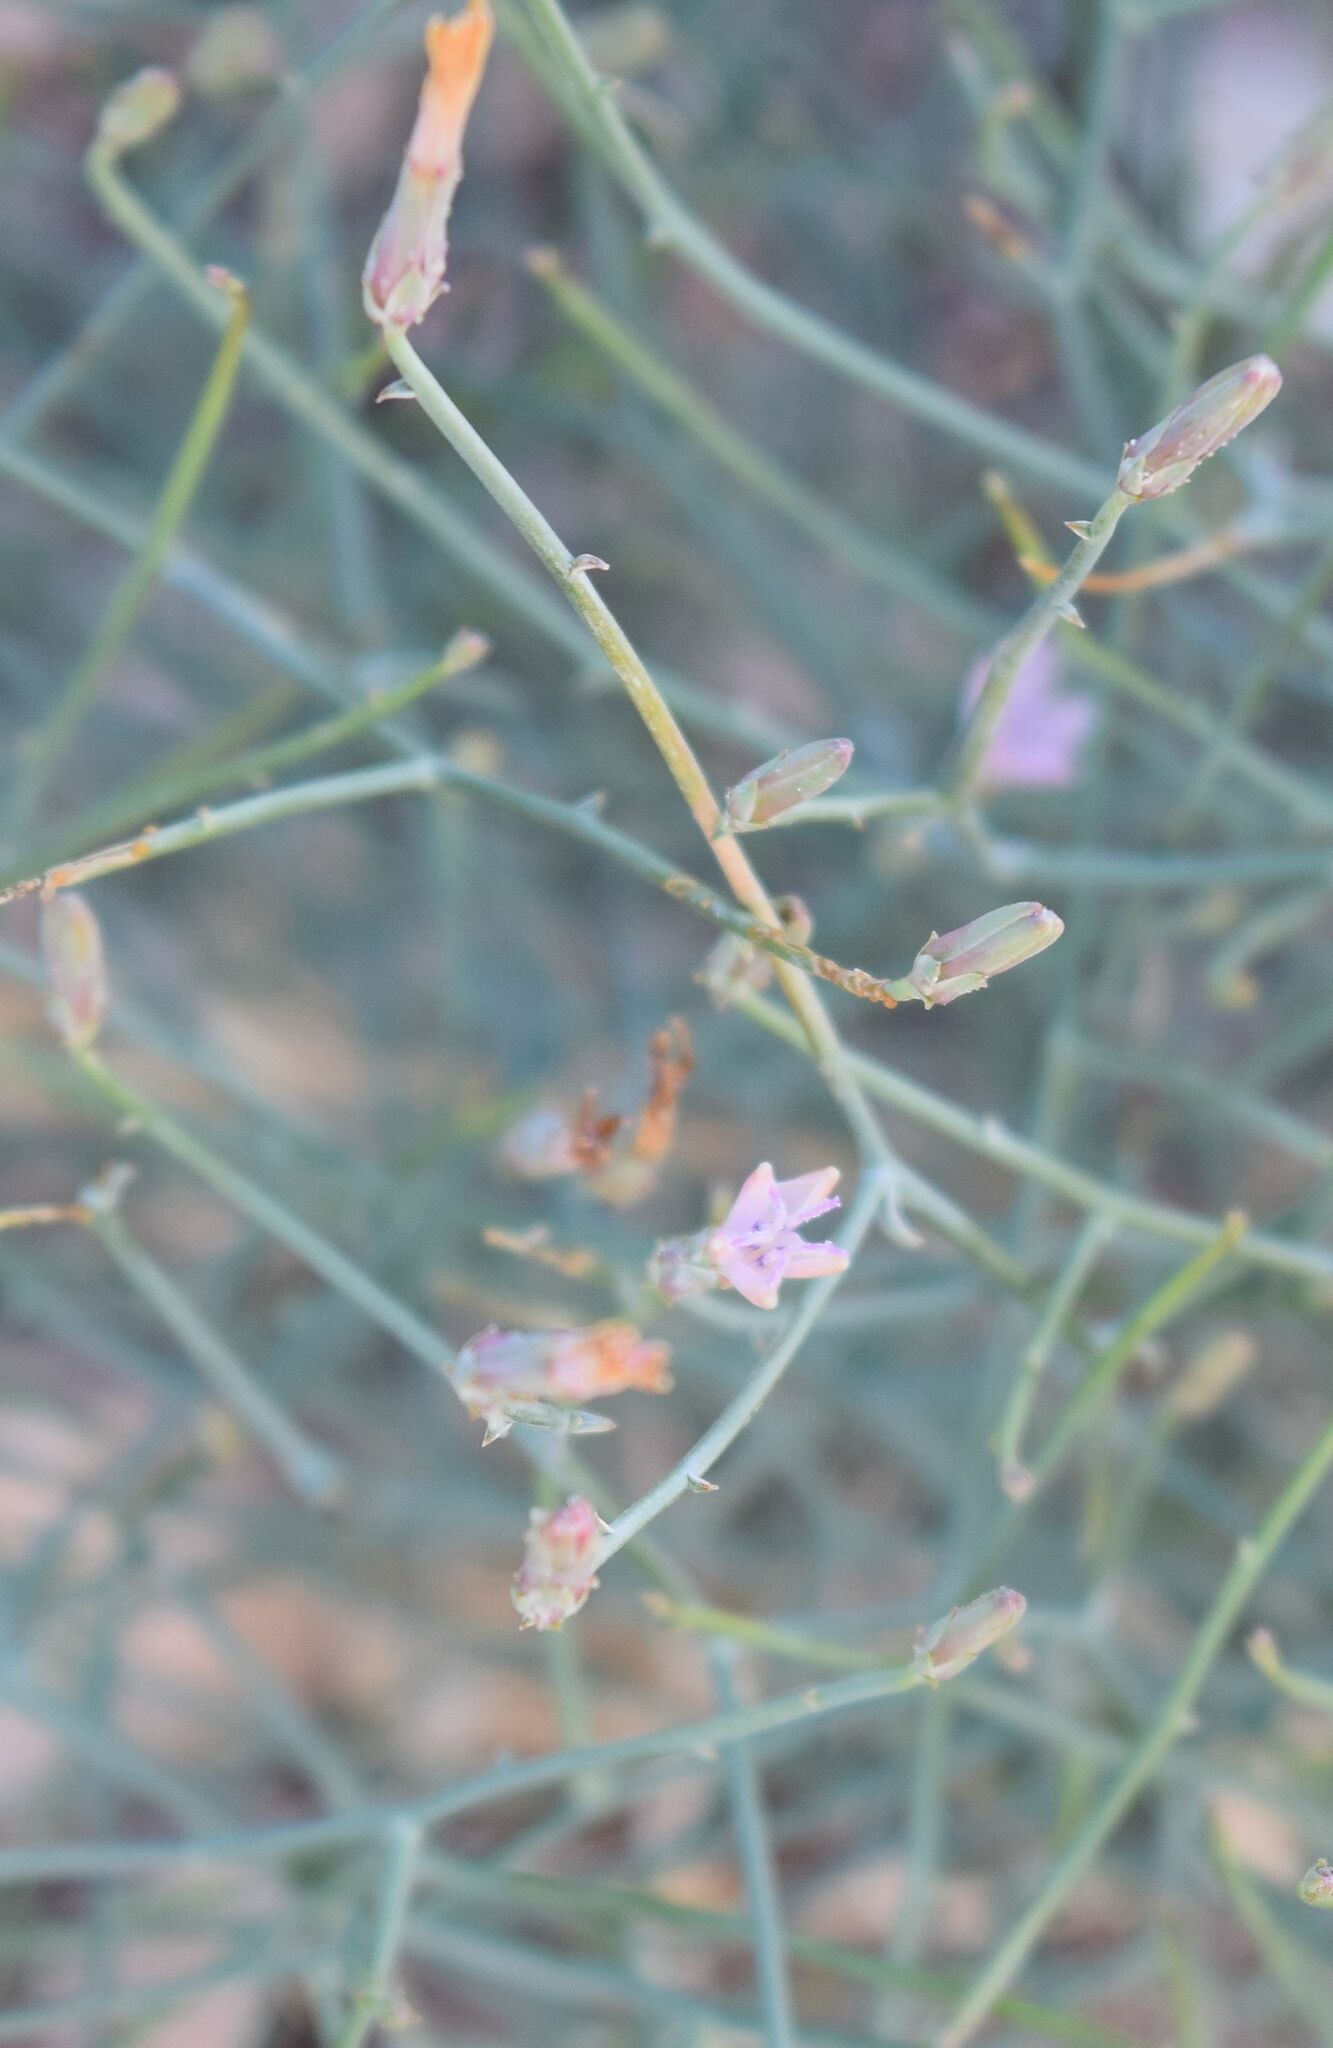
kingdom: Plantae
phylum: Tracheophyta
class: Magnoliopsida
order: Asterales
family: Asteraceae
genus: Stephanomeria
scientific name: Stephanomeria pauciflora
